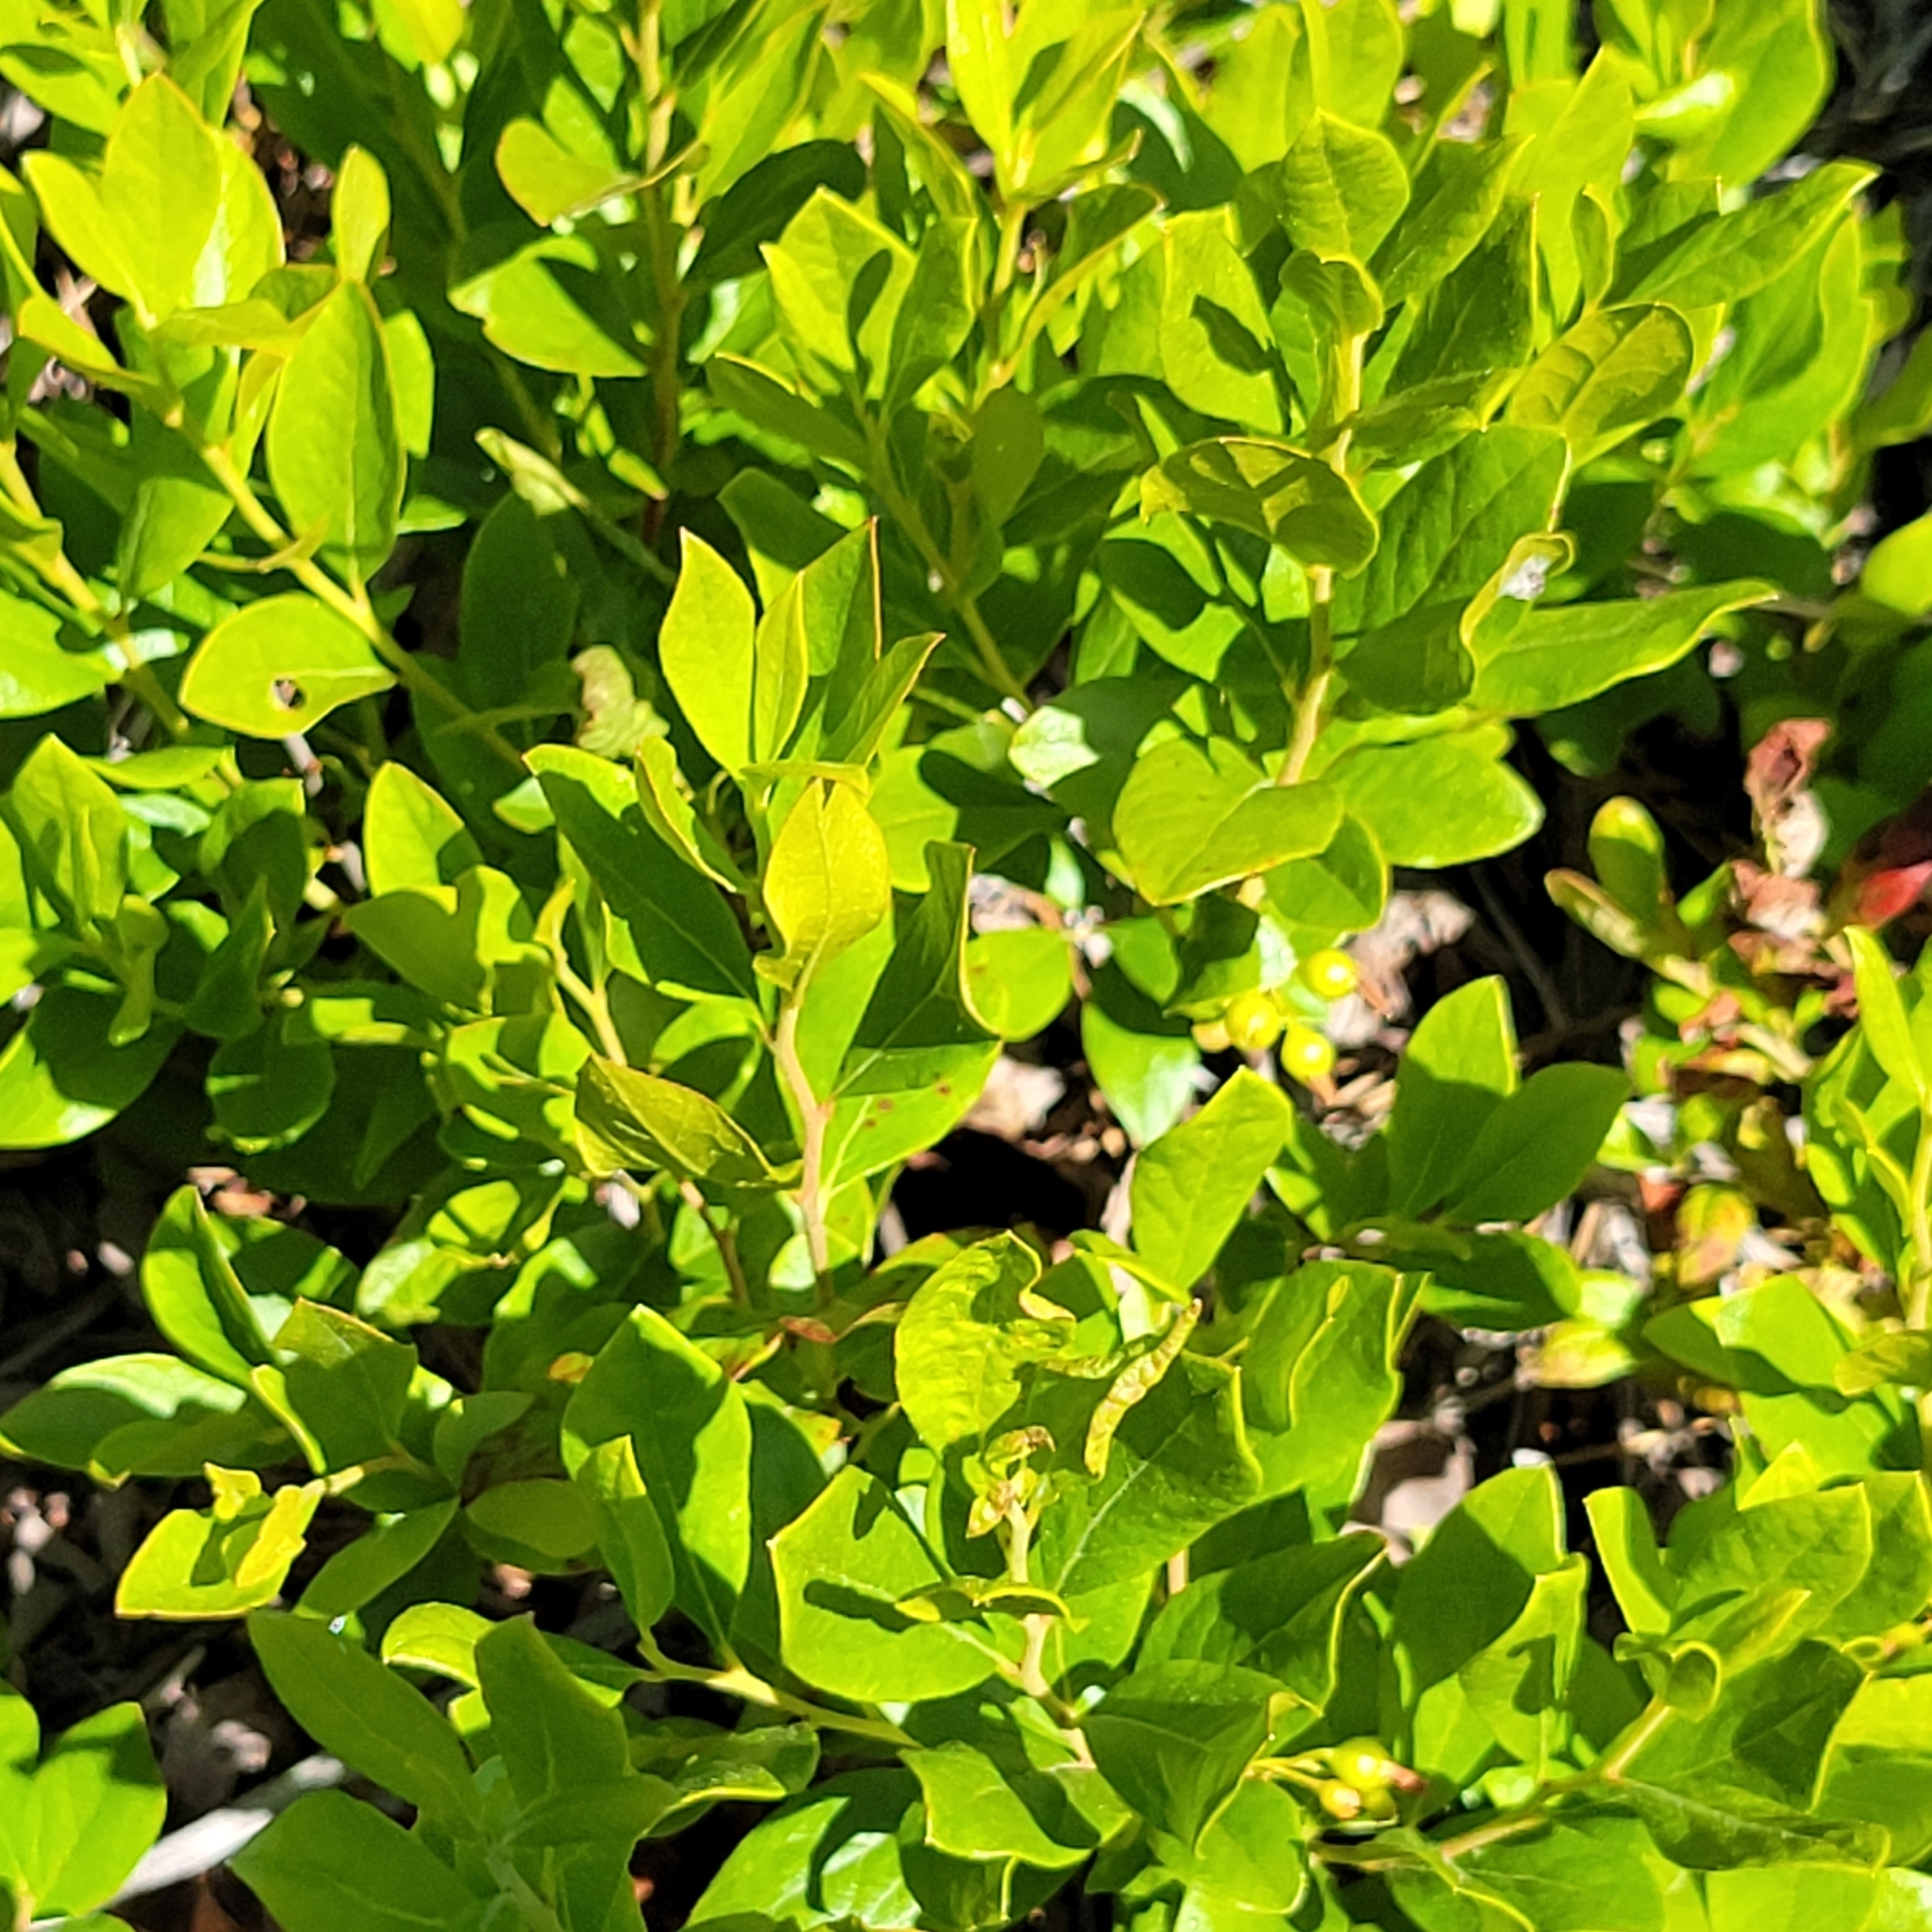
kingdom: Plantae
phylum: Tracheophyta
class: Magnoliopsida
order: Ericales
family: Ericaceae
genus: Gaylussacia
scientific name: Gaylussacia baccata
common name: Black huckleberry
